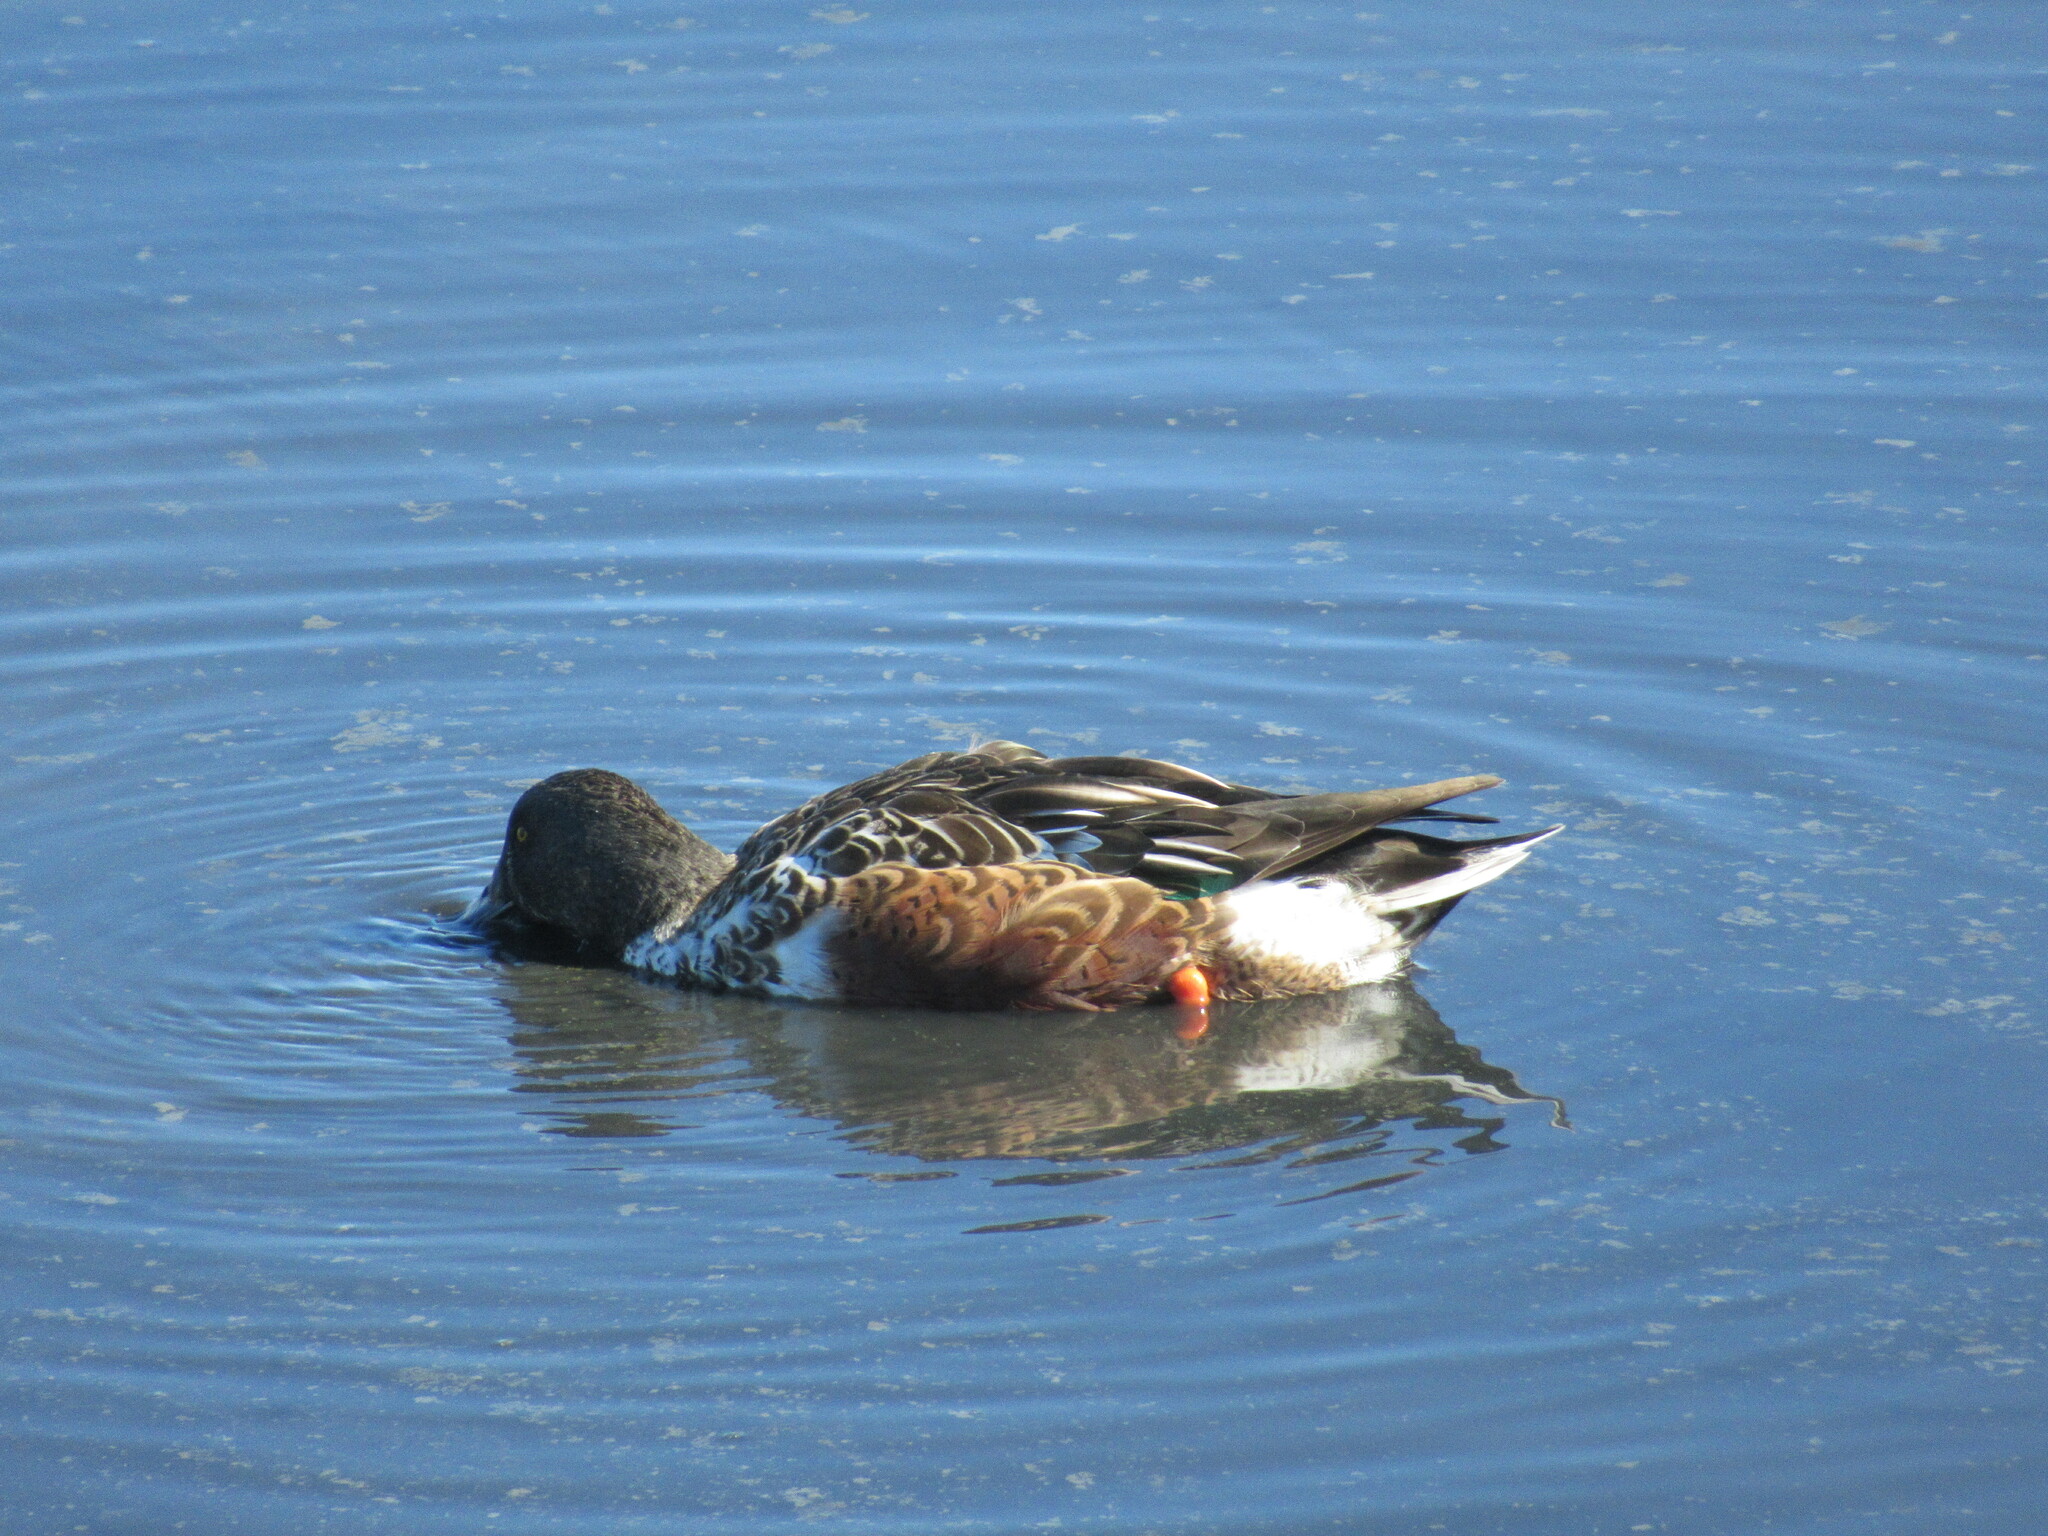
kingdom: Animalia
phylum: Chordata
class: Aves
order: Anseriformes
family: Anatidae
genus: Spatula
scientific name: Spatula clypeata
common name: Northern shoveler
